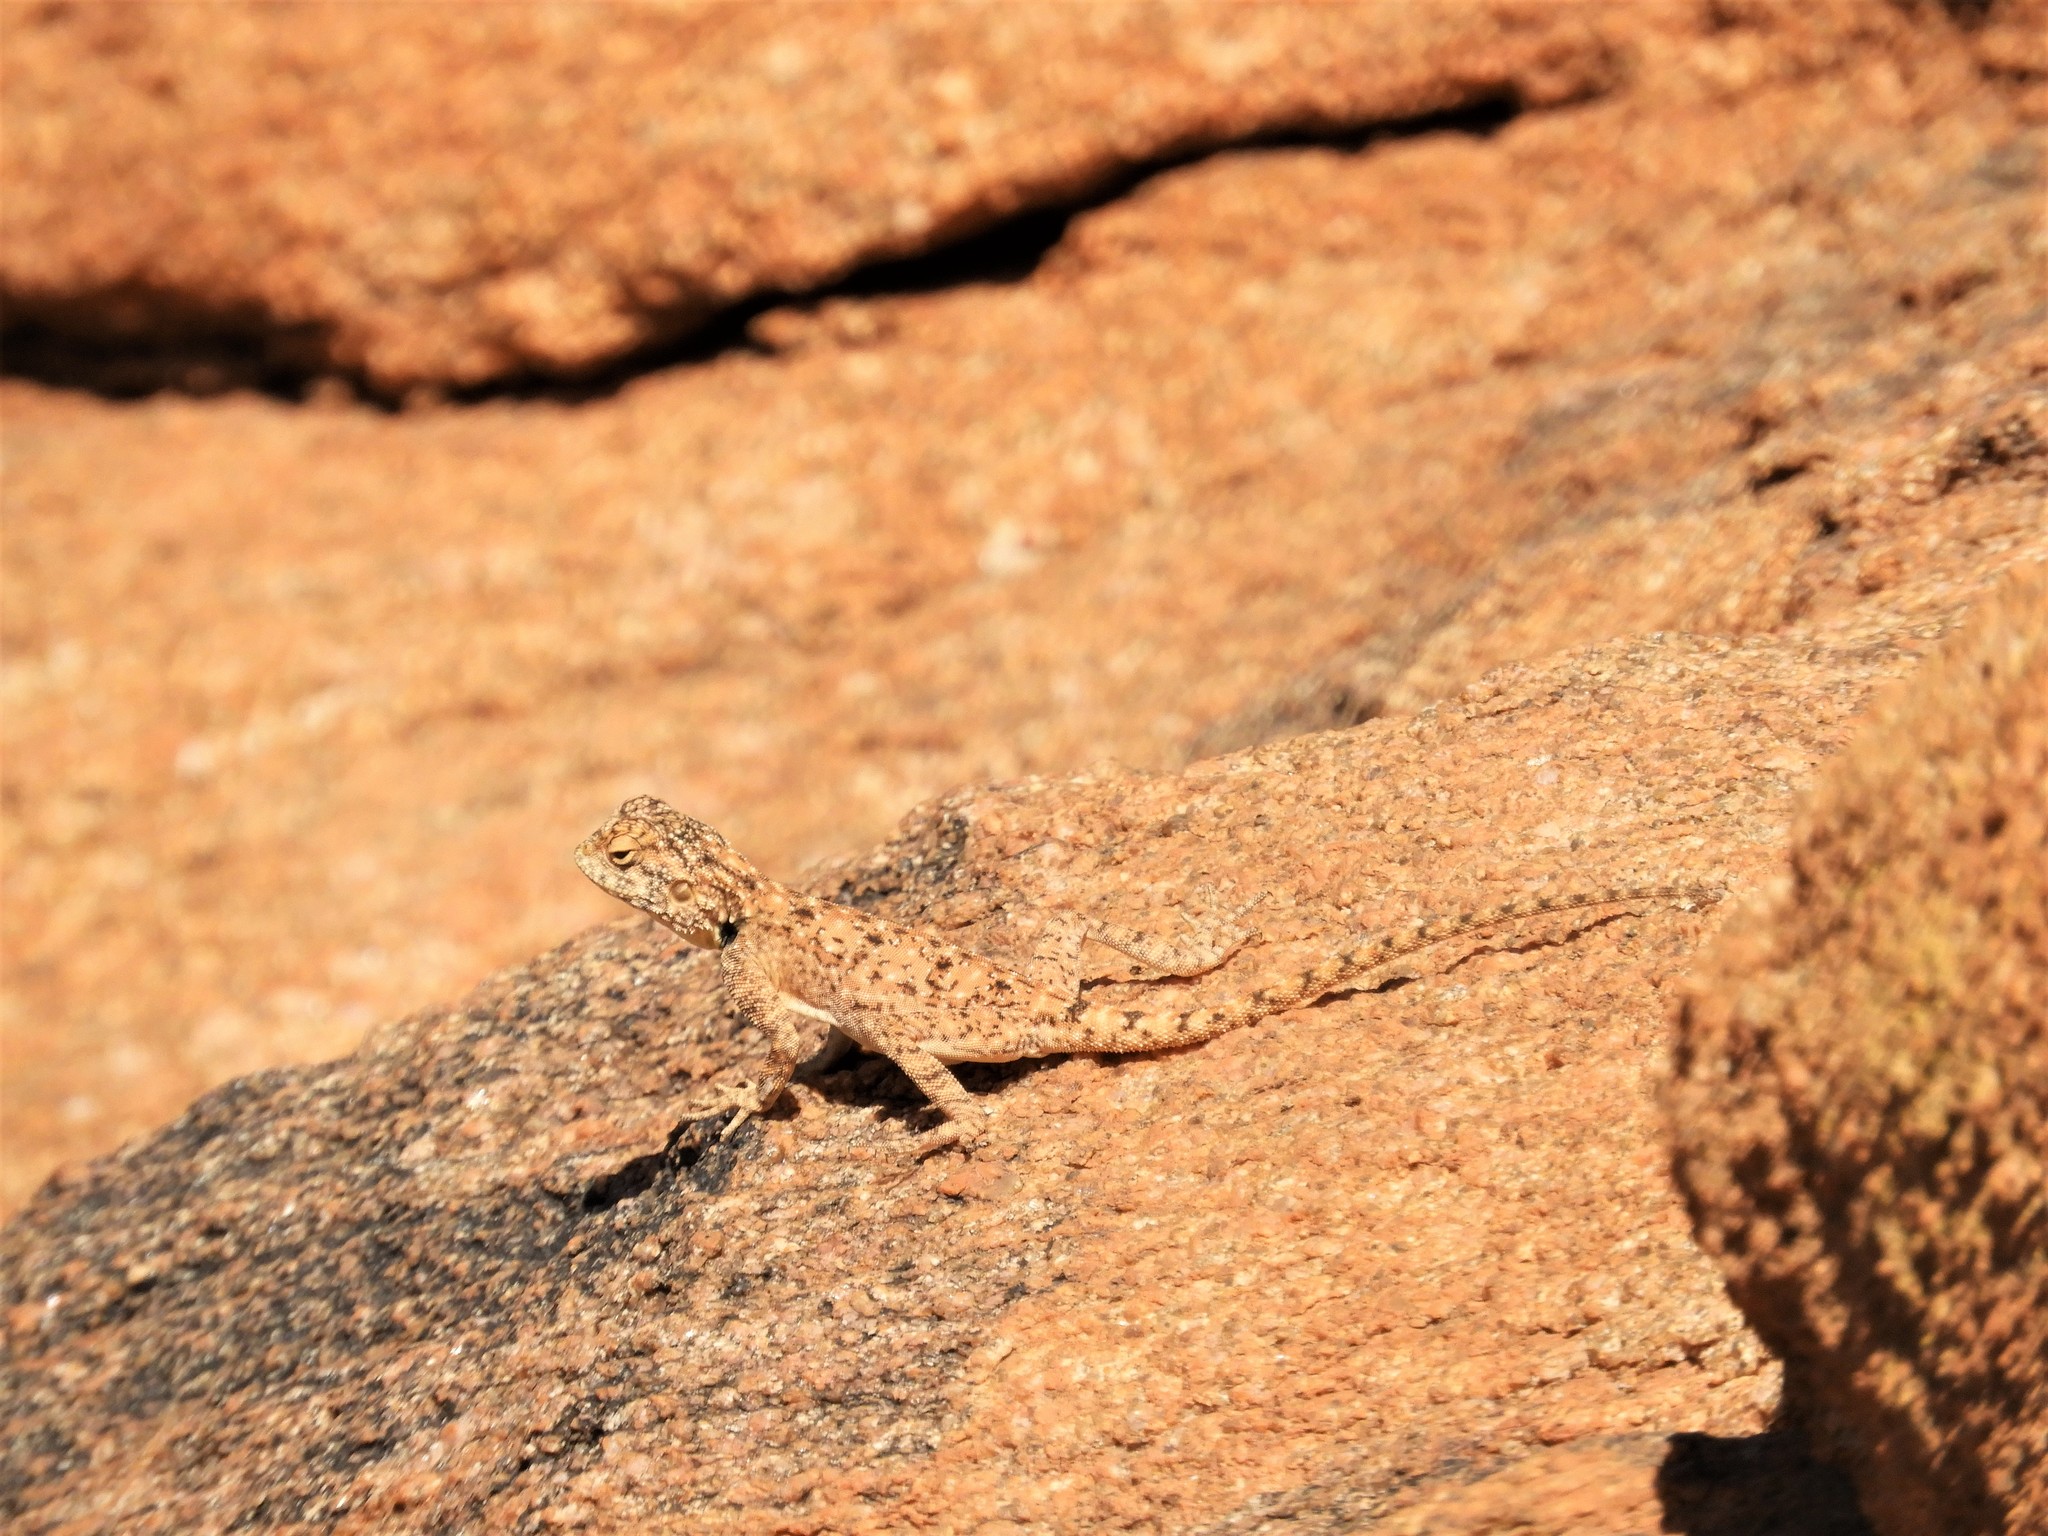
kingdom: Animalia
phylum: Chordata
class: Squamata
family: Agamidae
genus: Agama
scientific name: Agama atra
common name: Southern african rock agama
